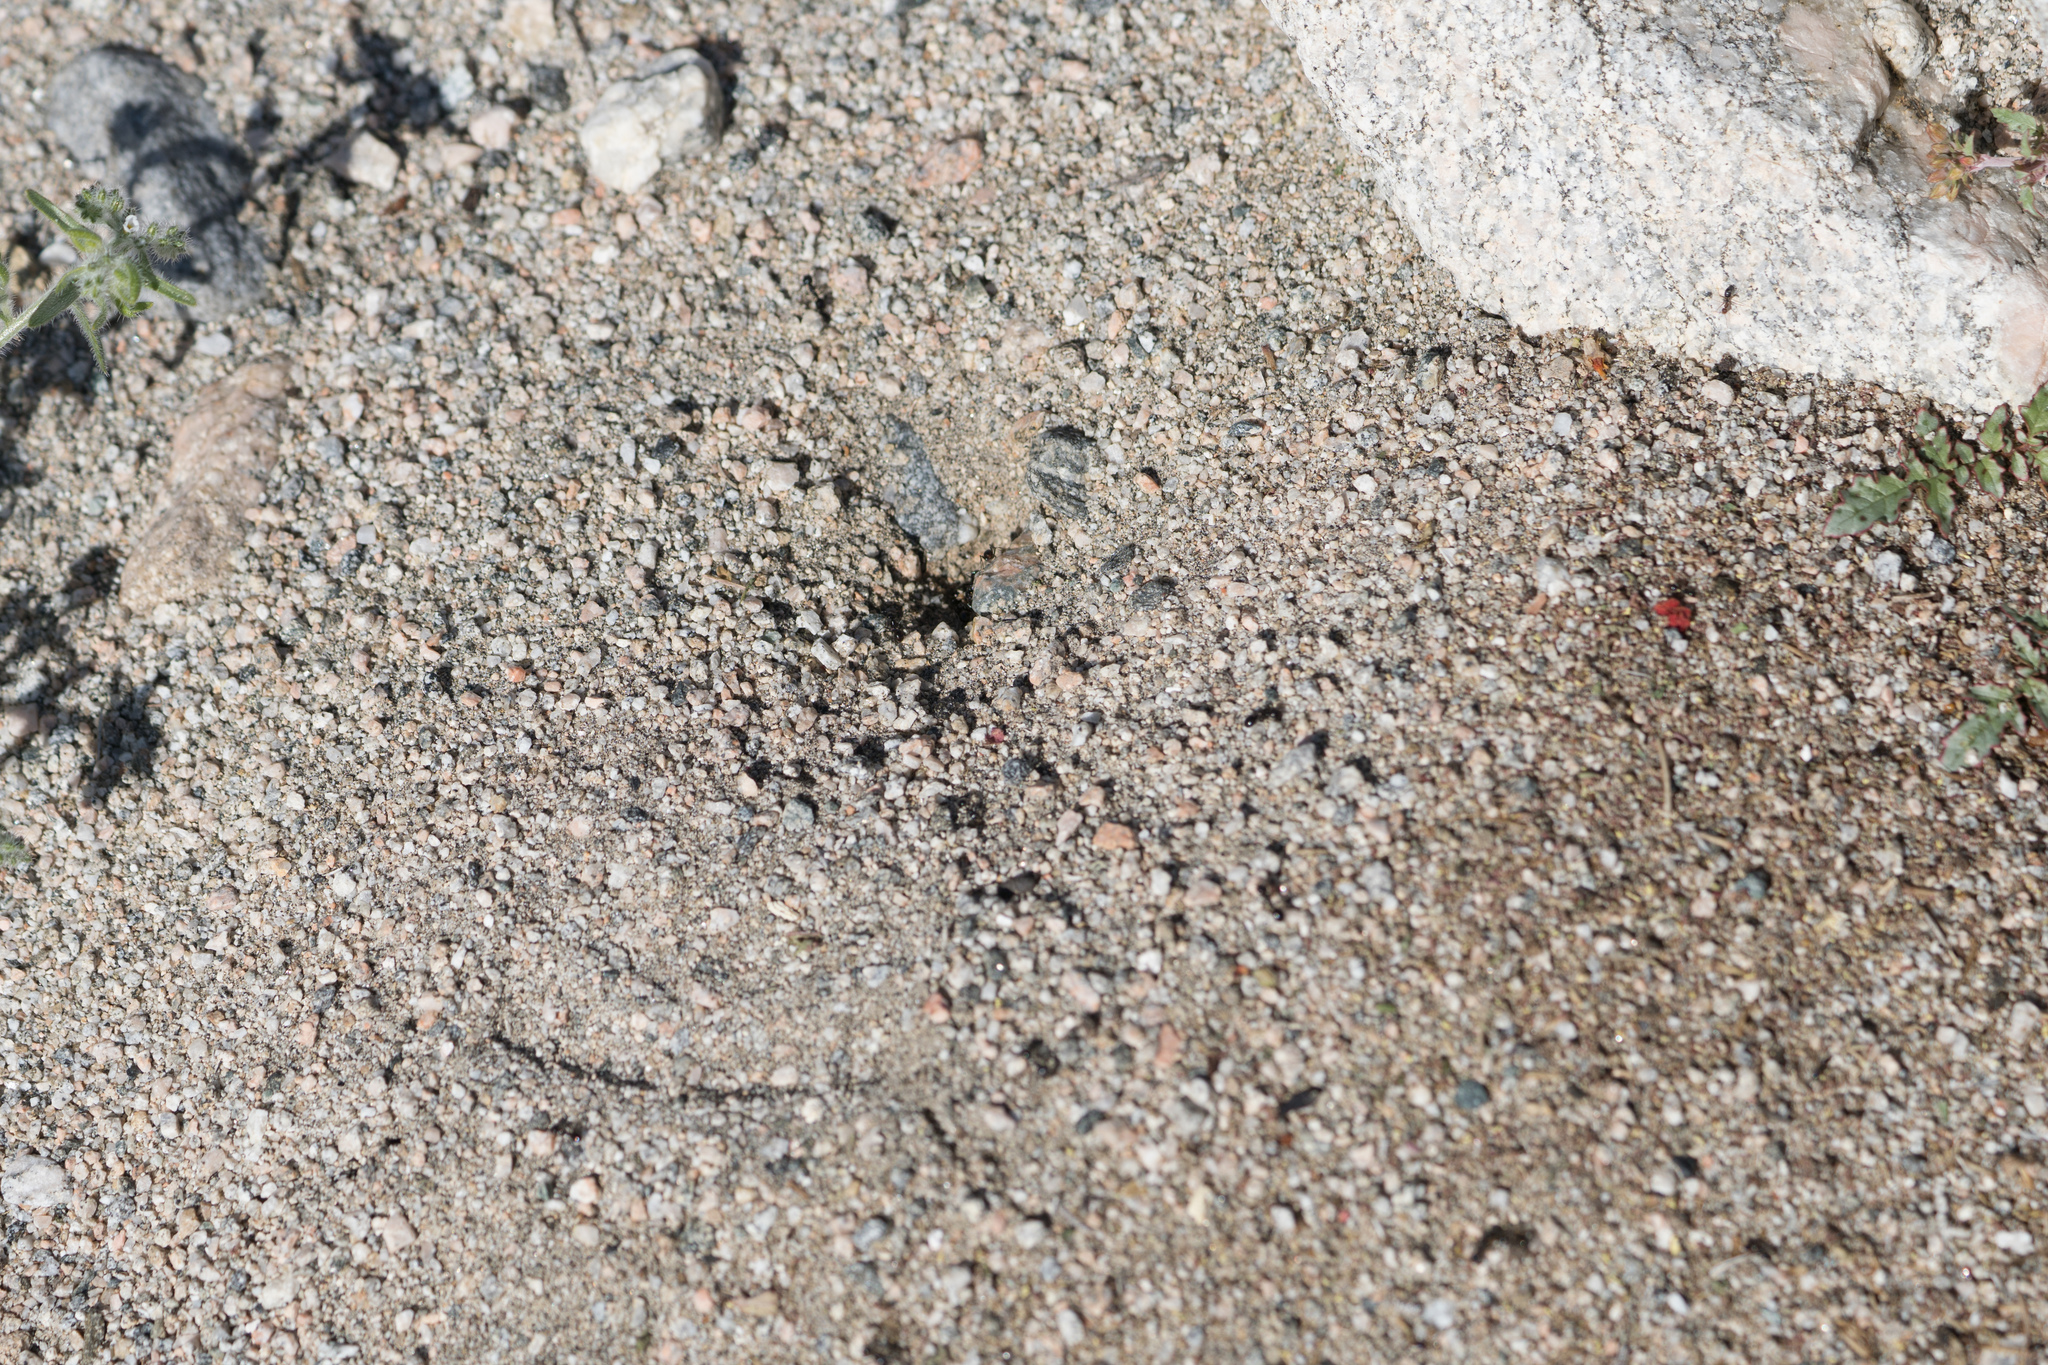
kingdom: Animalia
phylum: Arthropoda
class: Insecta
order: Hymenoptera
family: Formicidae
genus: Messor
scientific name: Messor pergandei
